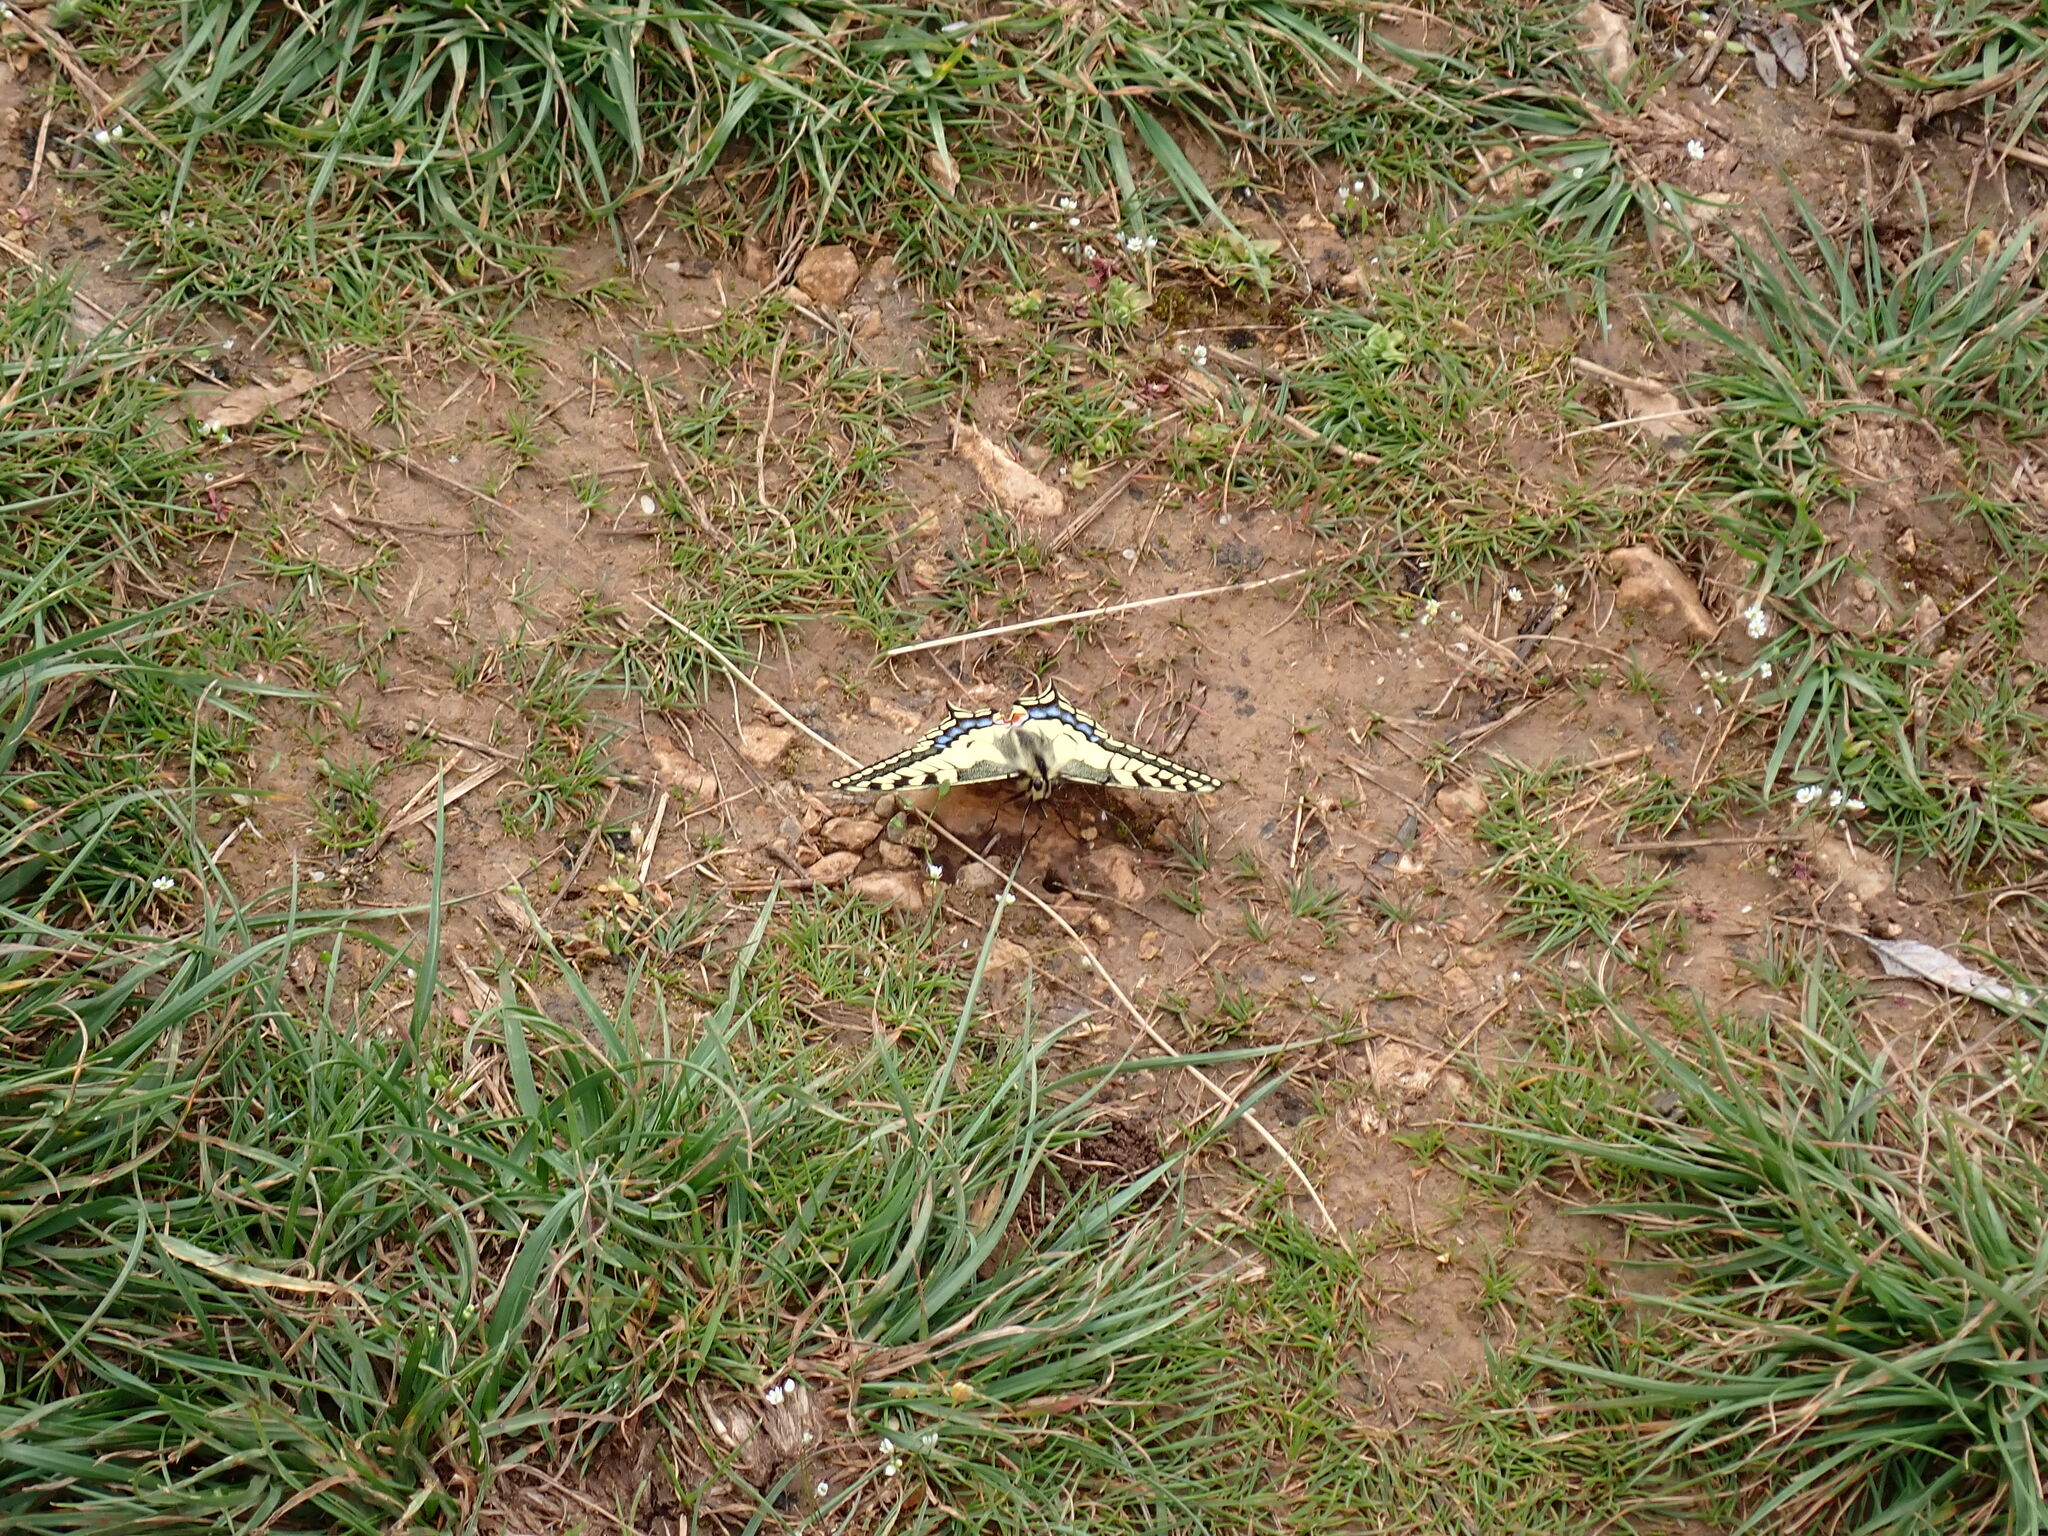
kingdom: Animalia
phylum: Arthropoda
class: Insecta
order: Lepidoptera
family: Papilionidae
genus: Papilio
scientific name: Papilio machaon
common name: Swallowtail
